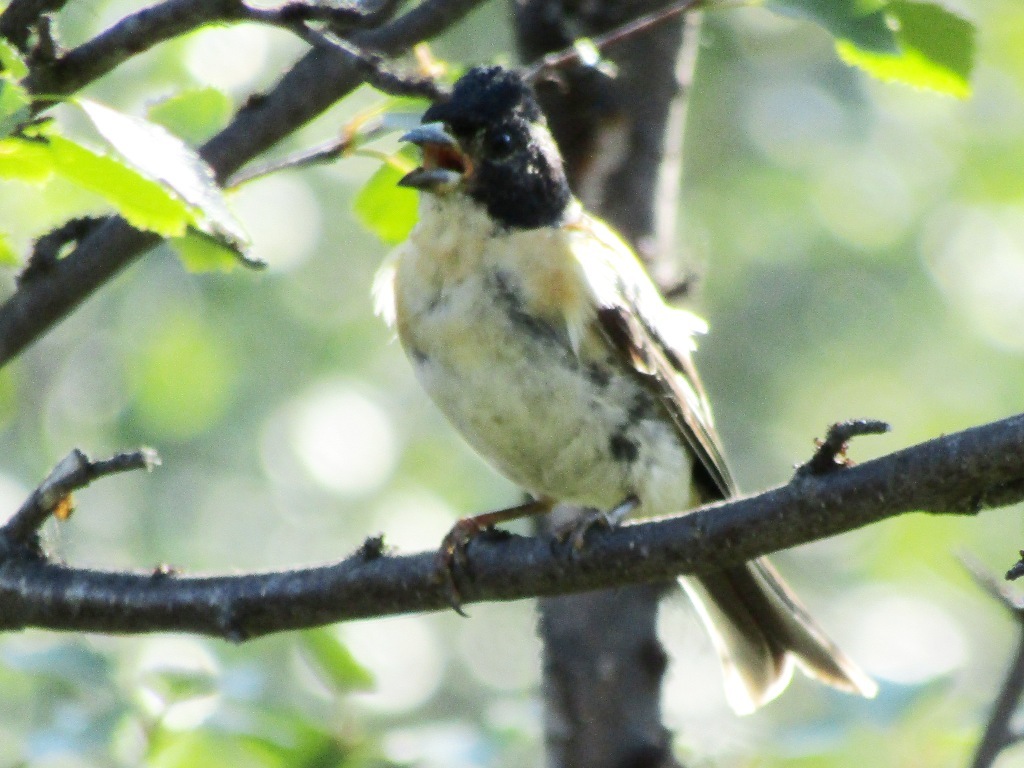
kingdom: Animalia
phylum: Chordata
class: Aves
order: Passeriformes
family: Fringillidae
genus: Fringilla
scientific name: Fringilla montifringilla
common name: Brambling
